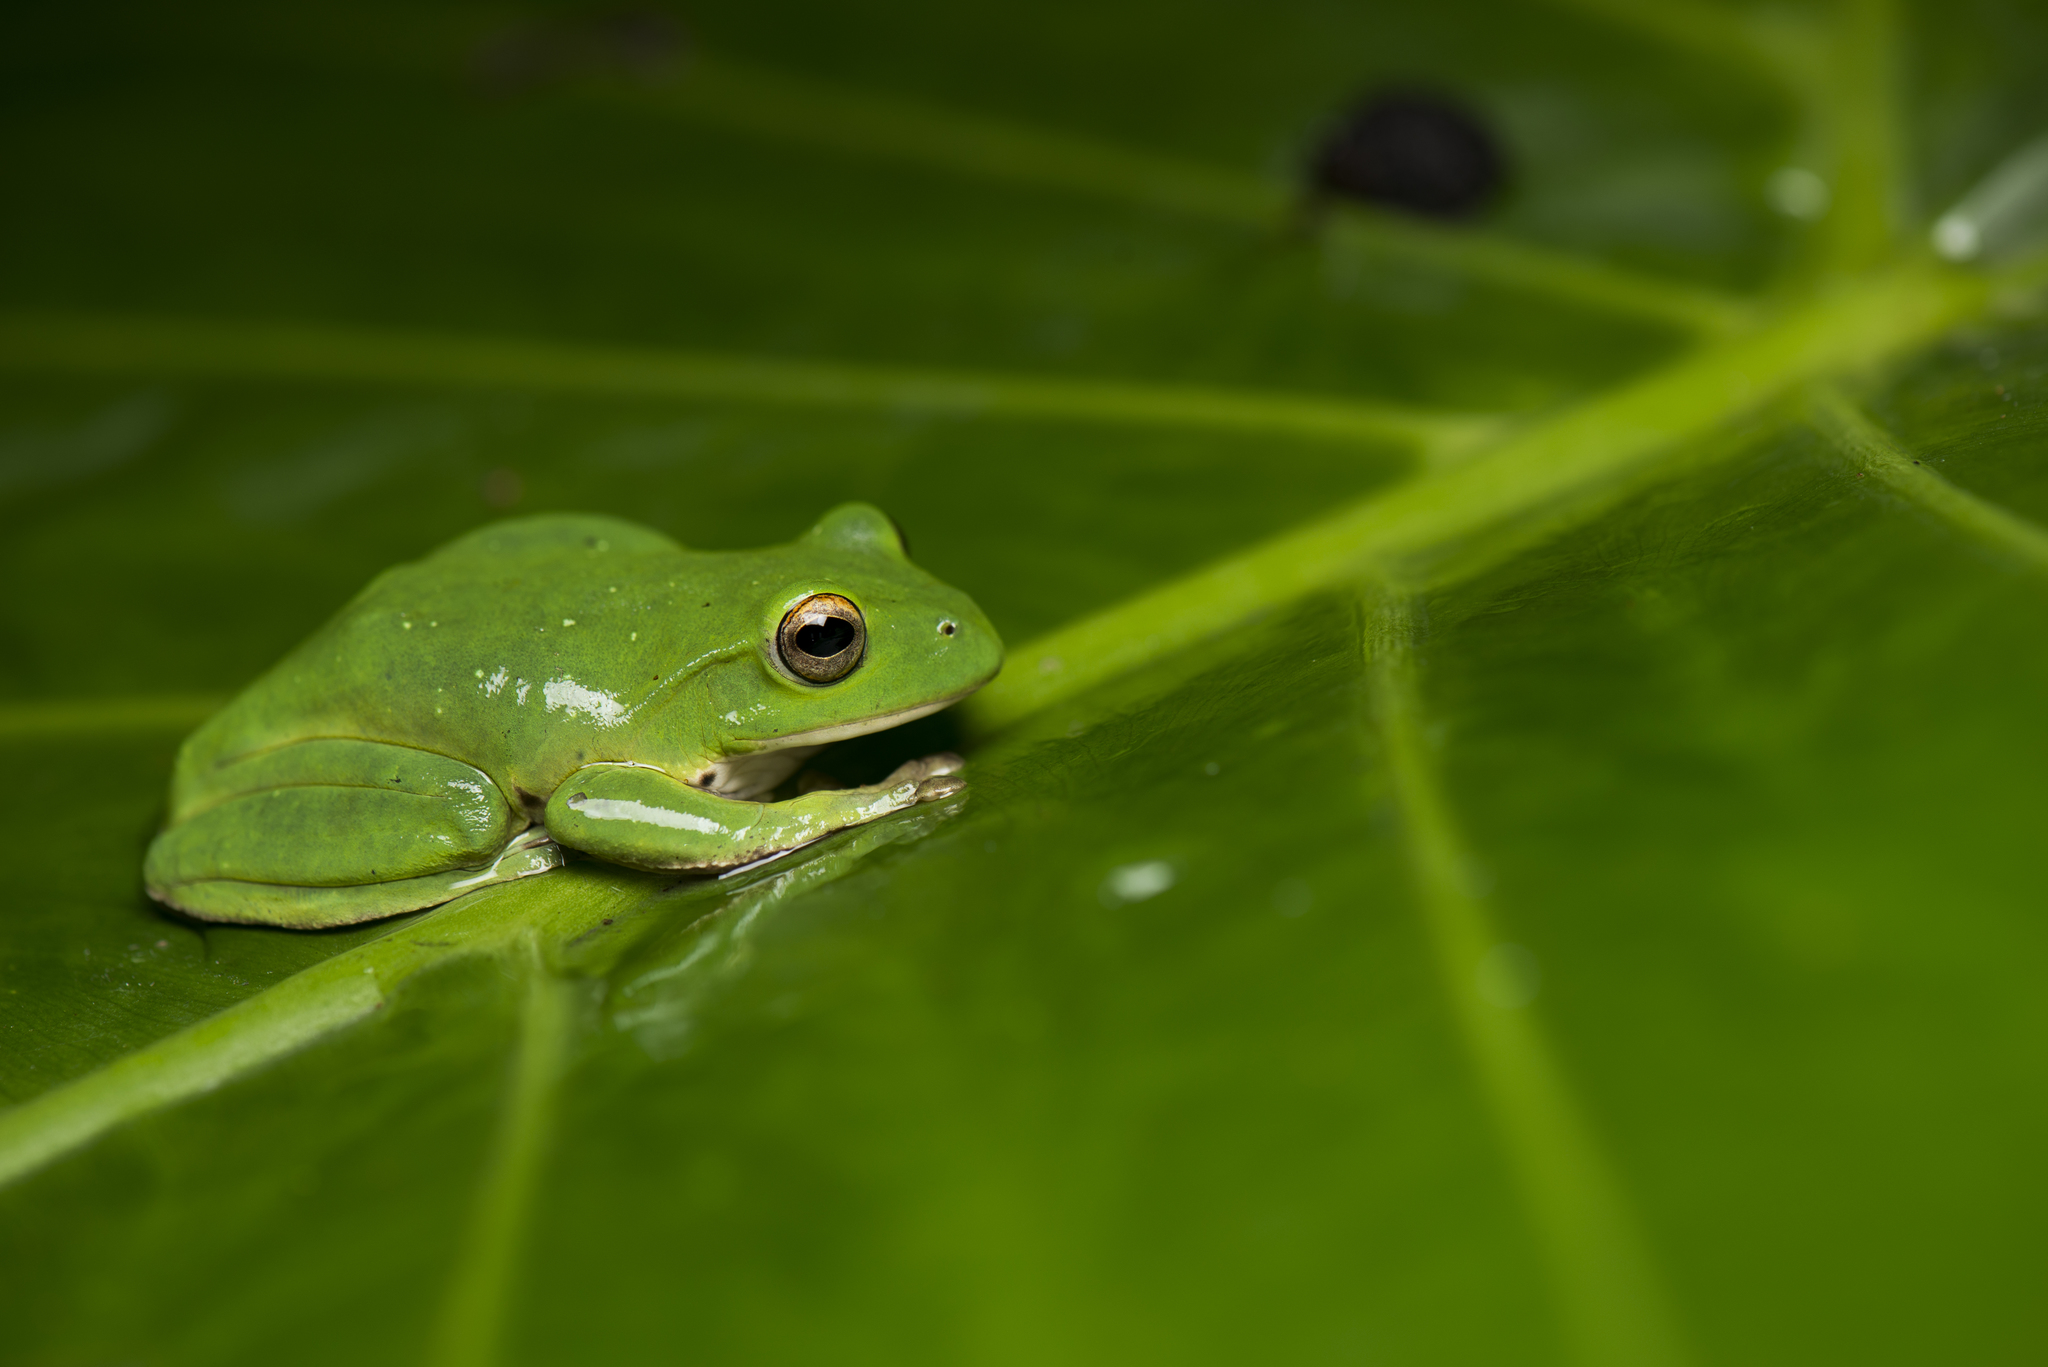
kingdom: Animalia
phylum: Chordata
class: Amphibia
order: Anura
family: Rhacophoridae
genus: Zhangixalus
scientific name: Zhangixalus moltrechti
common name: Moltrecht's treefrog
